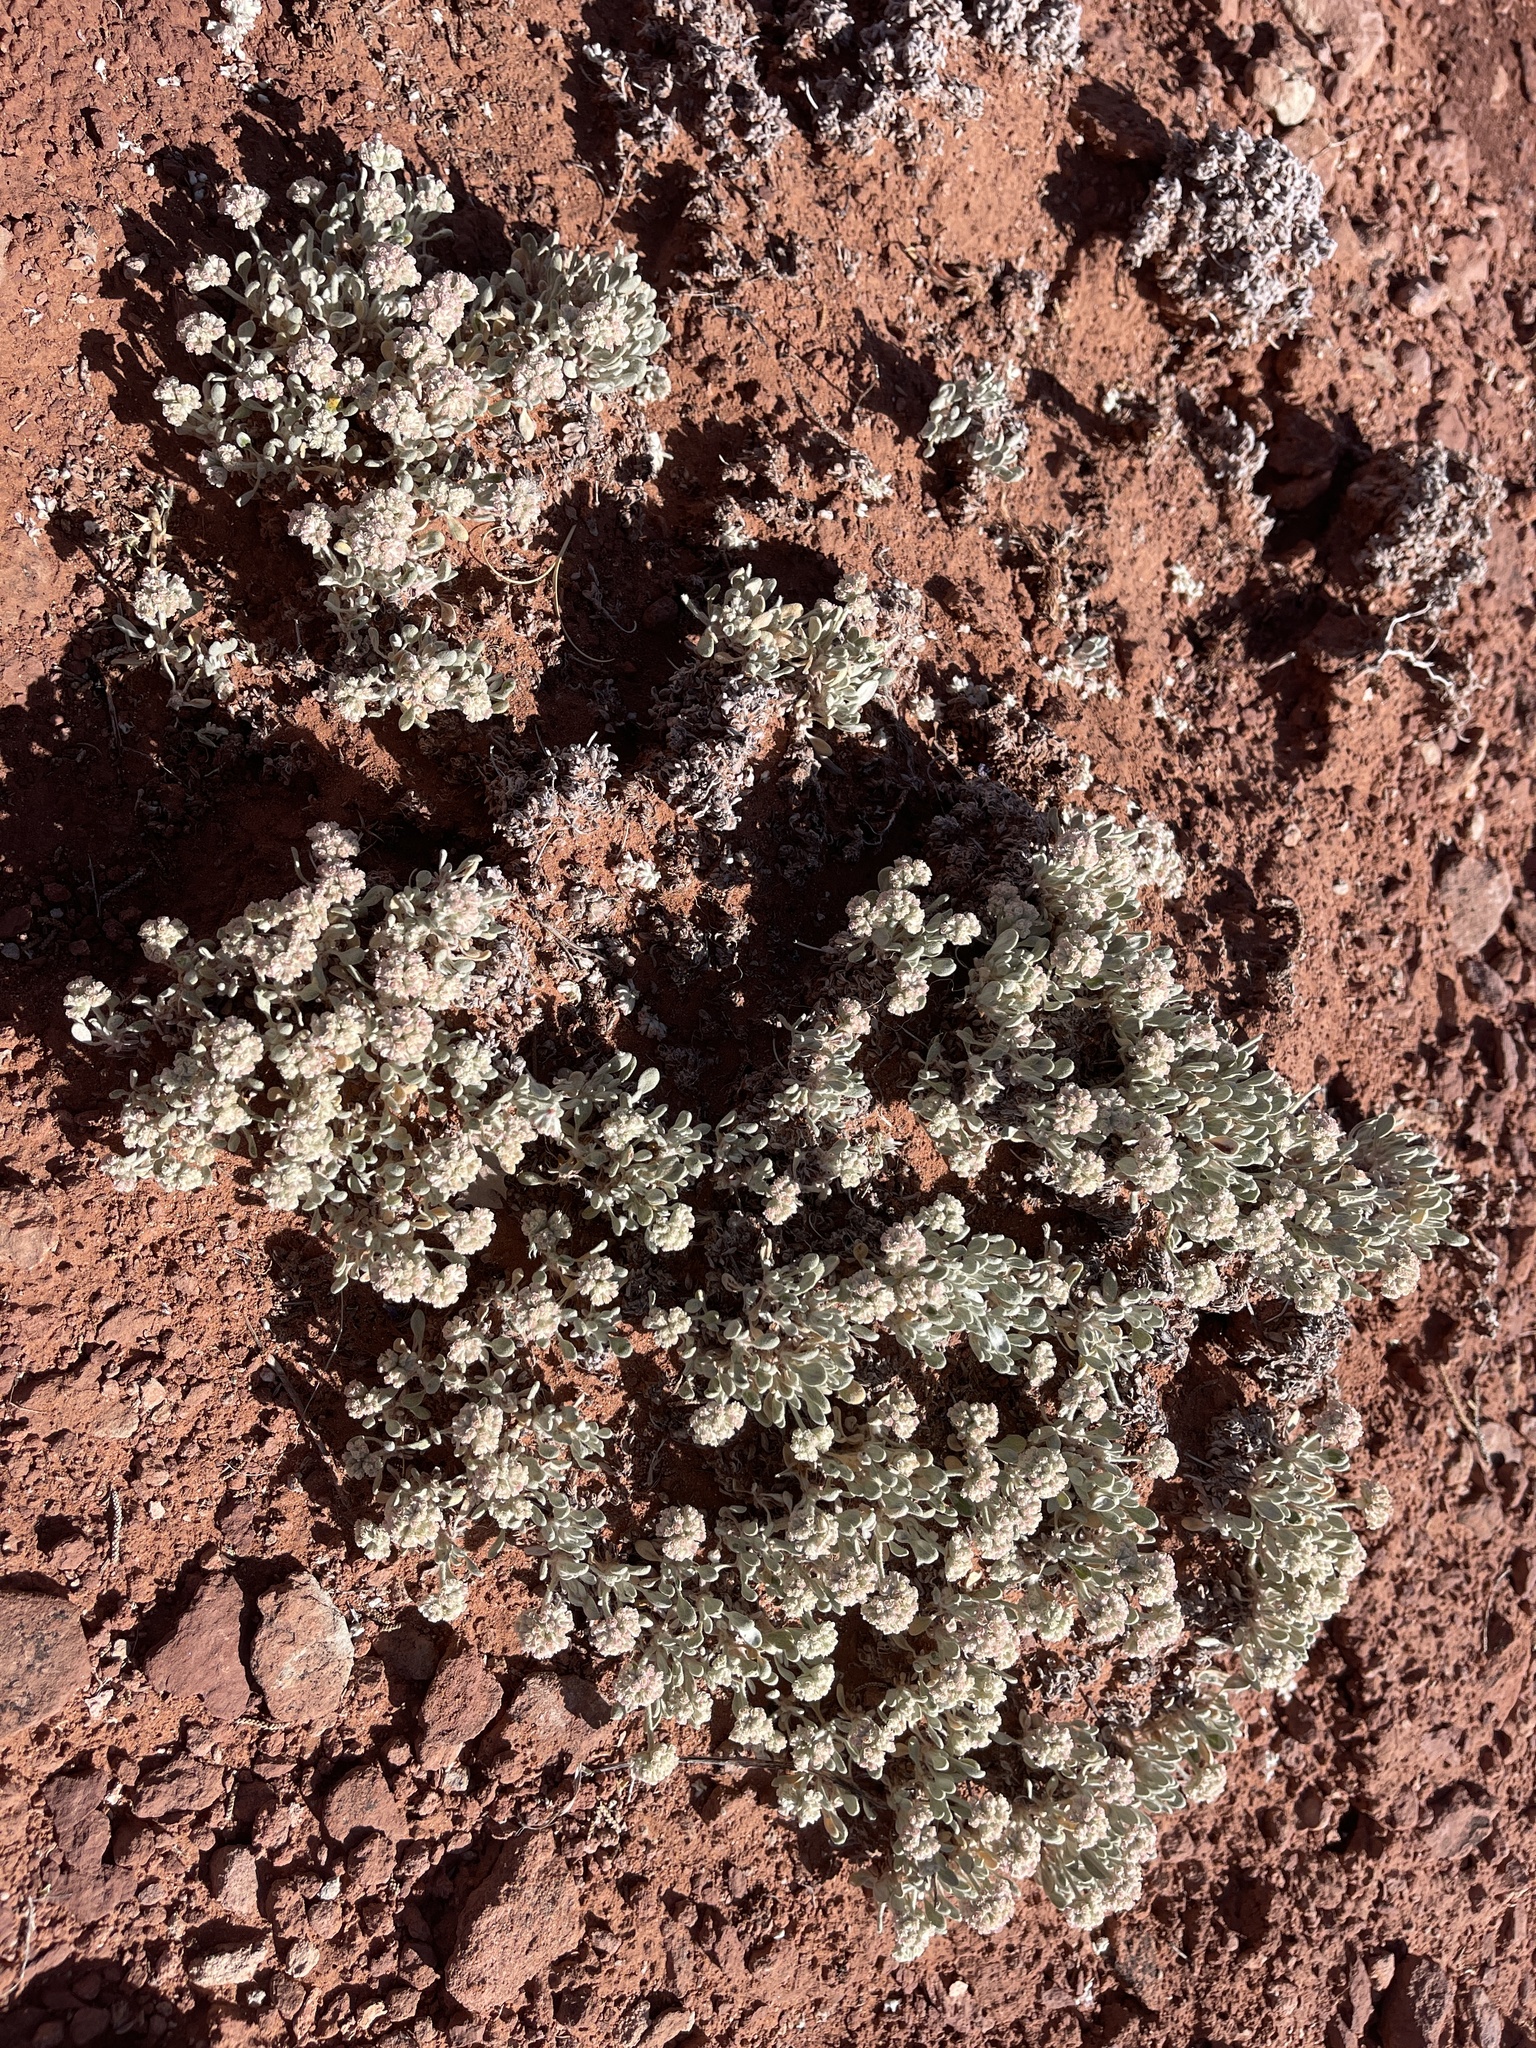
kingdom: Plantae
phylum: Tracheophyta
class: Magnoliopsida
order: Caryophyllales
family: Polygonaceae
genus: Eriogonum
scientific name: Eriogonum shockleyi
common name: Shockley's wild buckwheat
